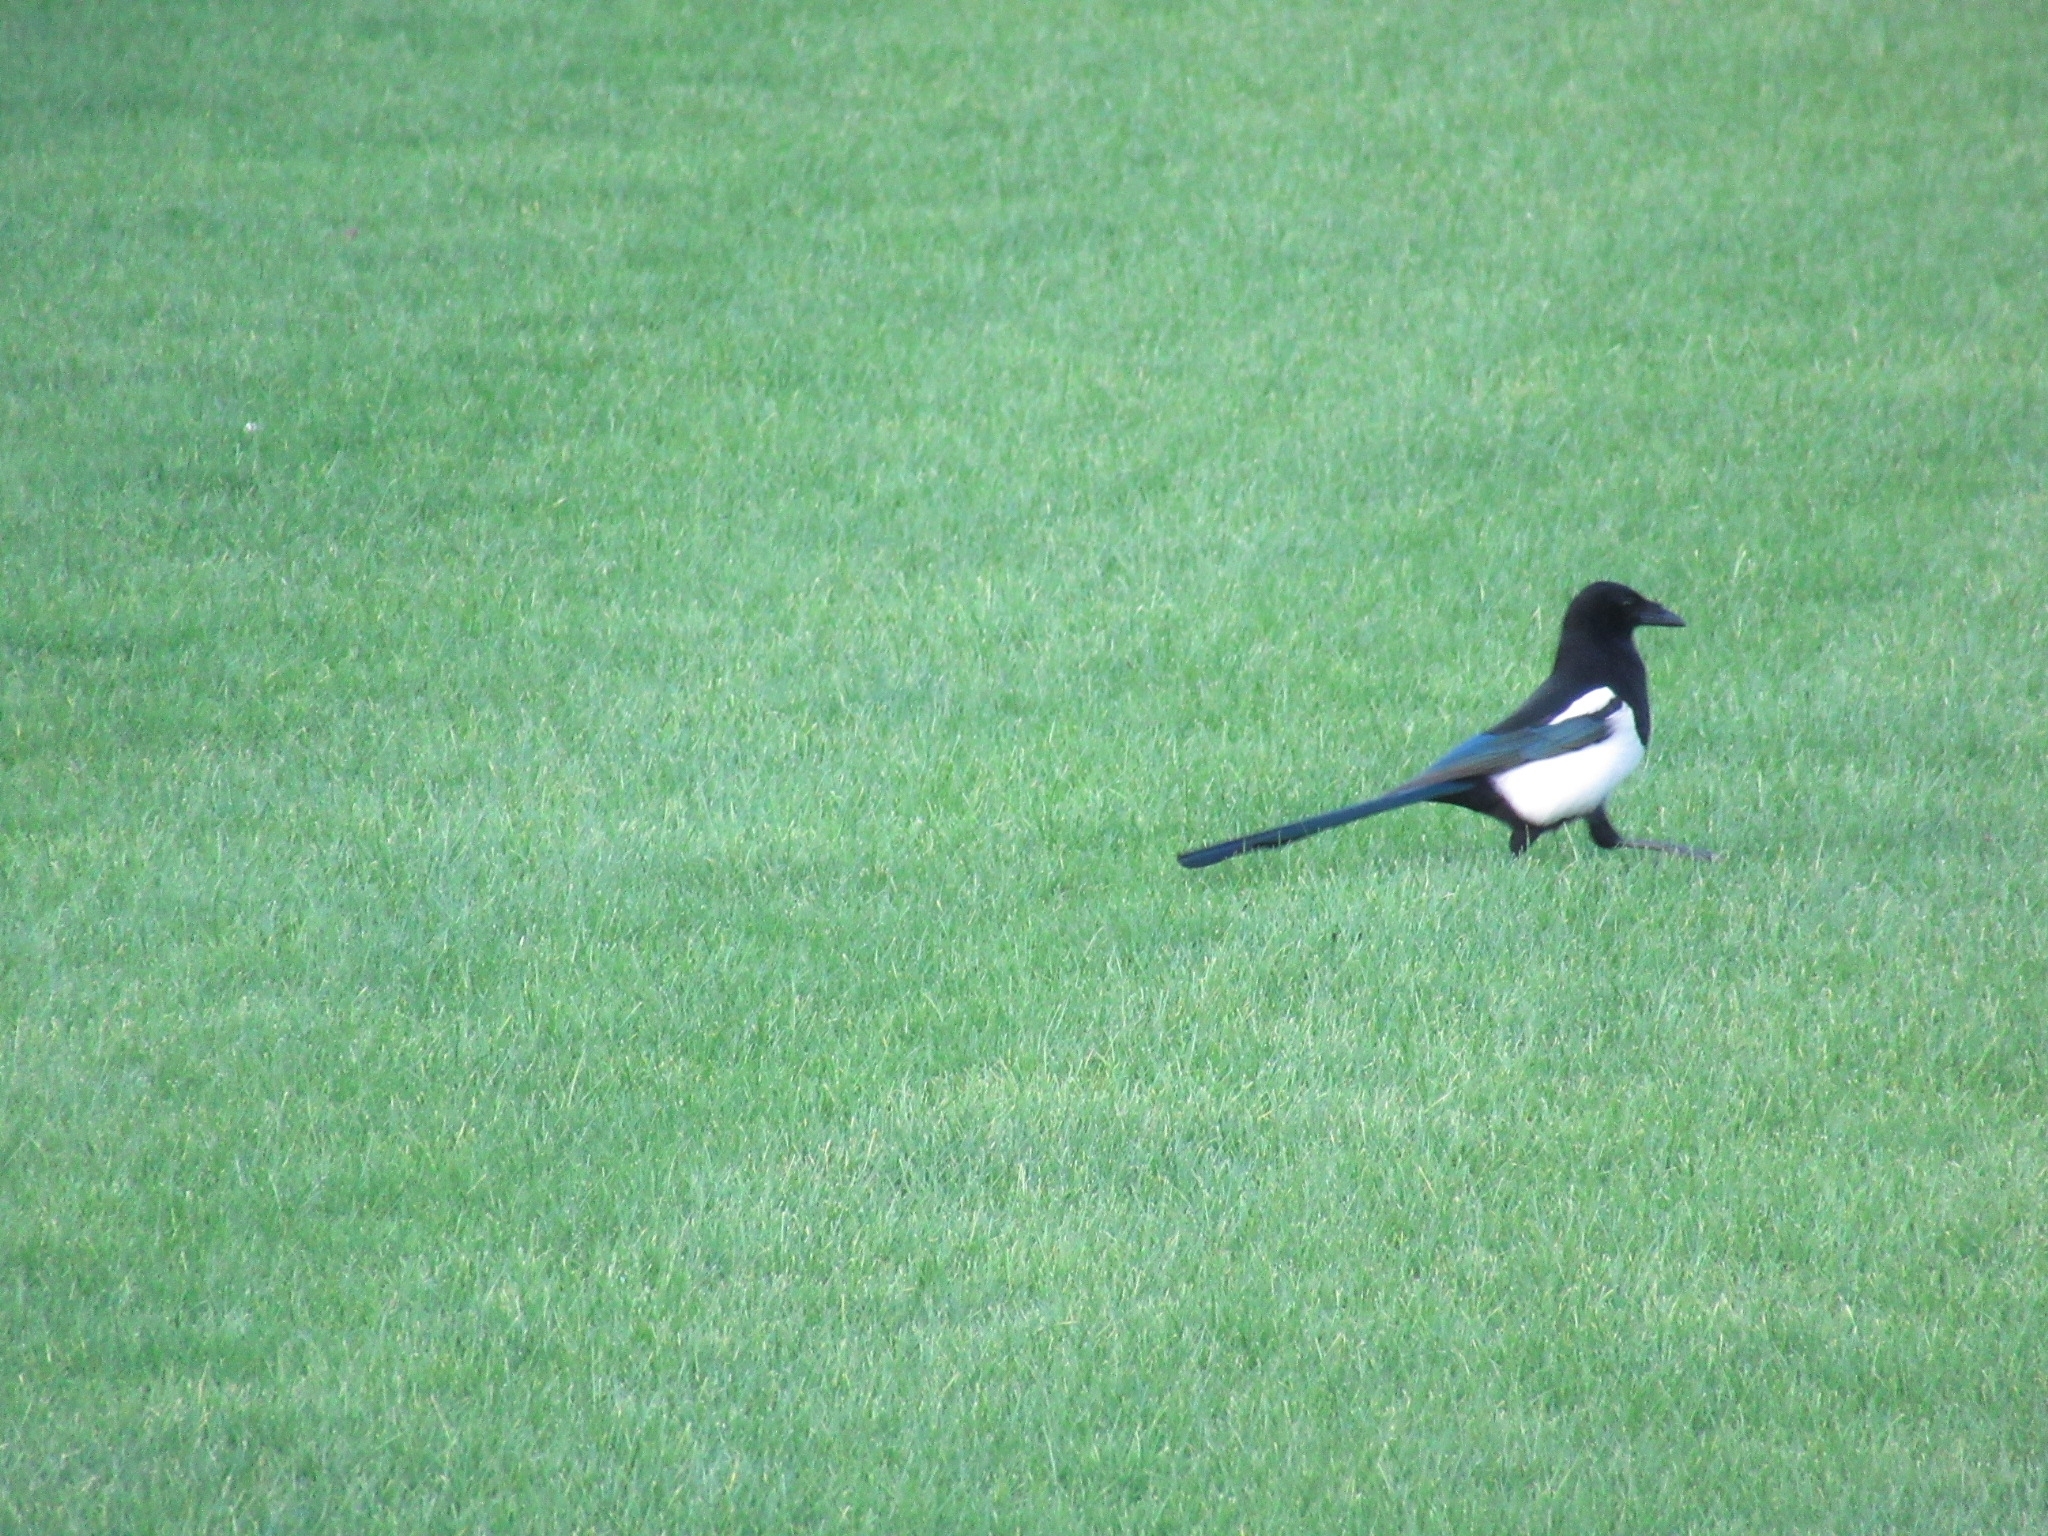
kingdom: Animalia
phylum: Chordata
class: Aves
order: Passeriformes
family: Corvidae
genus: Pica
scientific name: Pica pica
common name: Eurasian magpie
